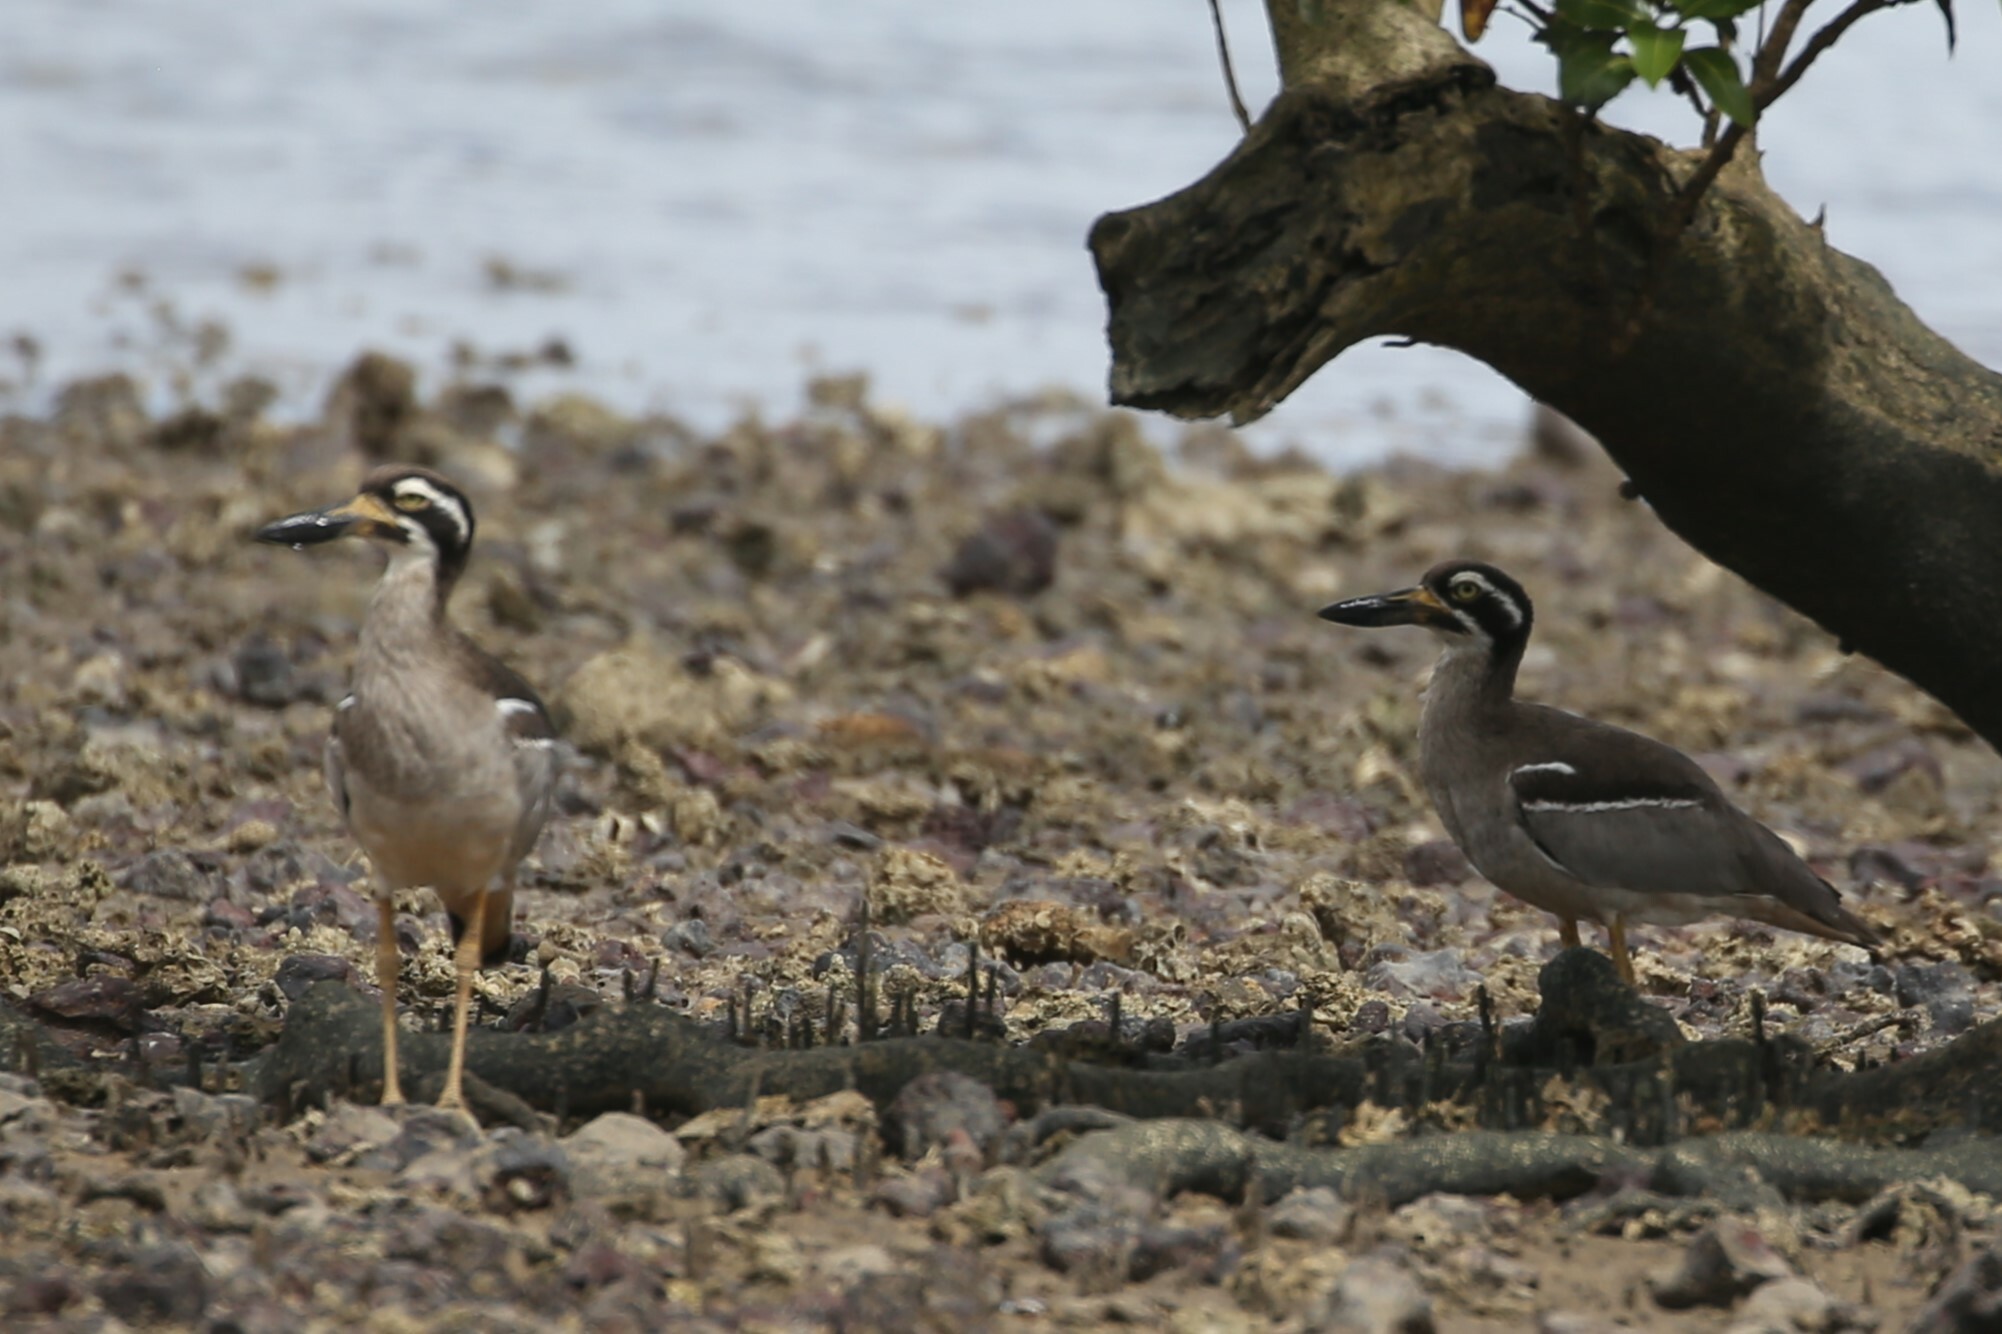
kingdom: Animalia
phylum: Chordata
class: Aves
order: Charadriiformes
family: Burhinidae
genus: Esacus
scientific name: Esacus magnirostris
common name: Beach stone-curlew
